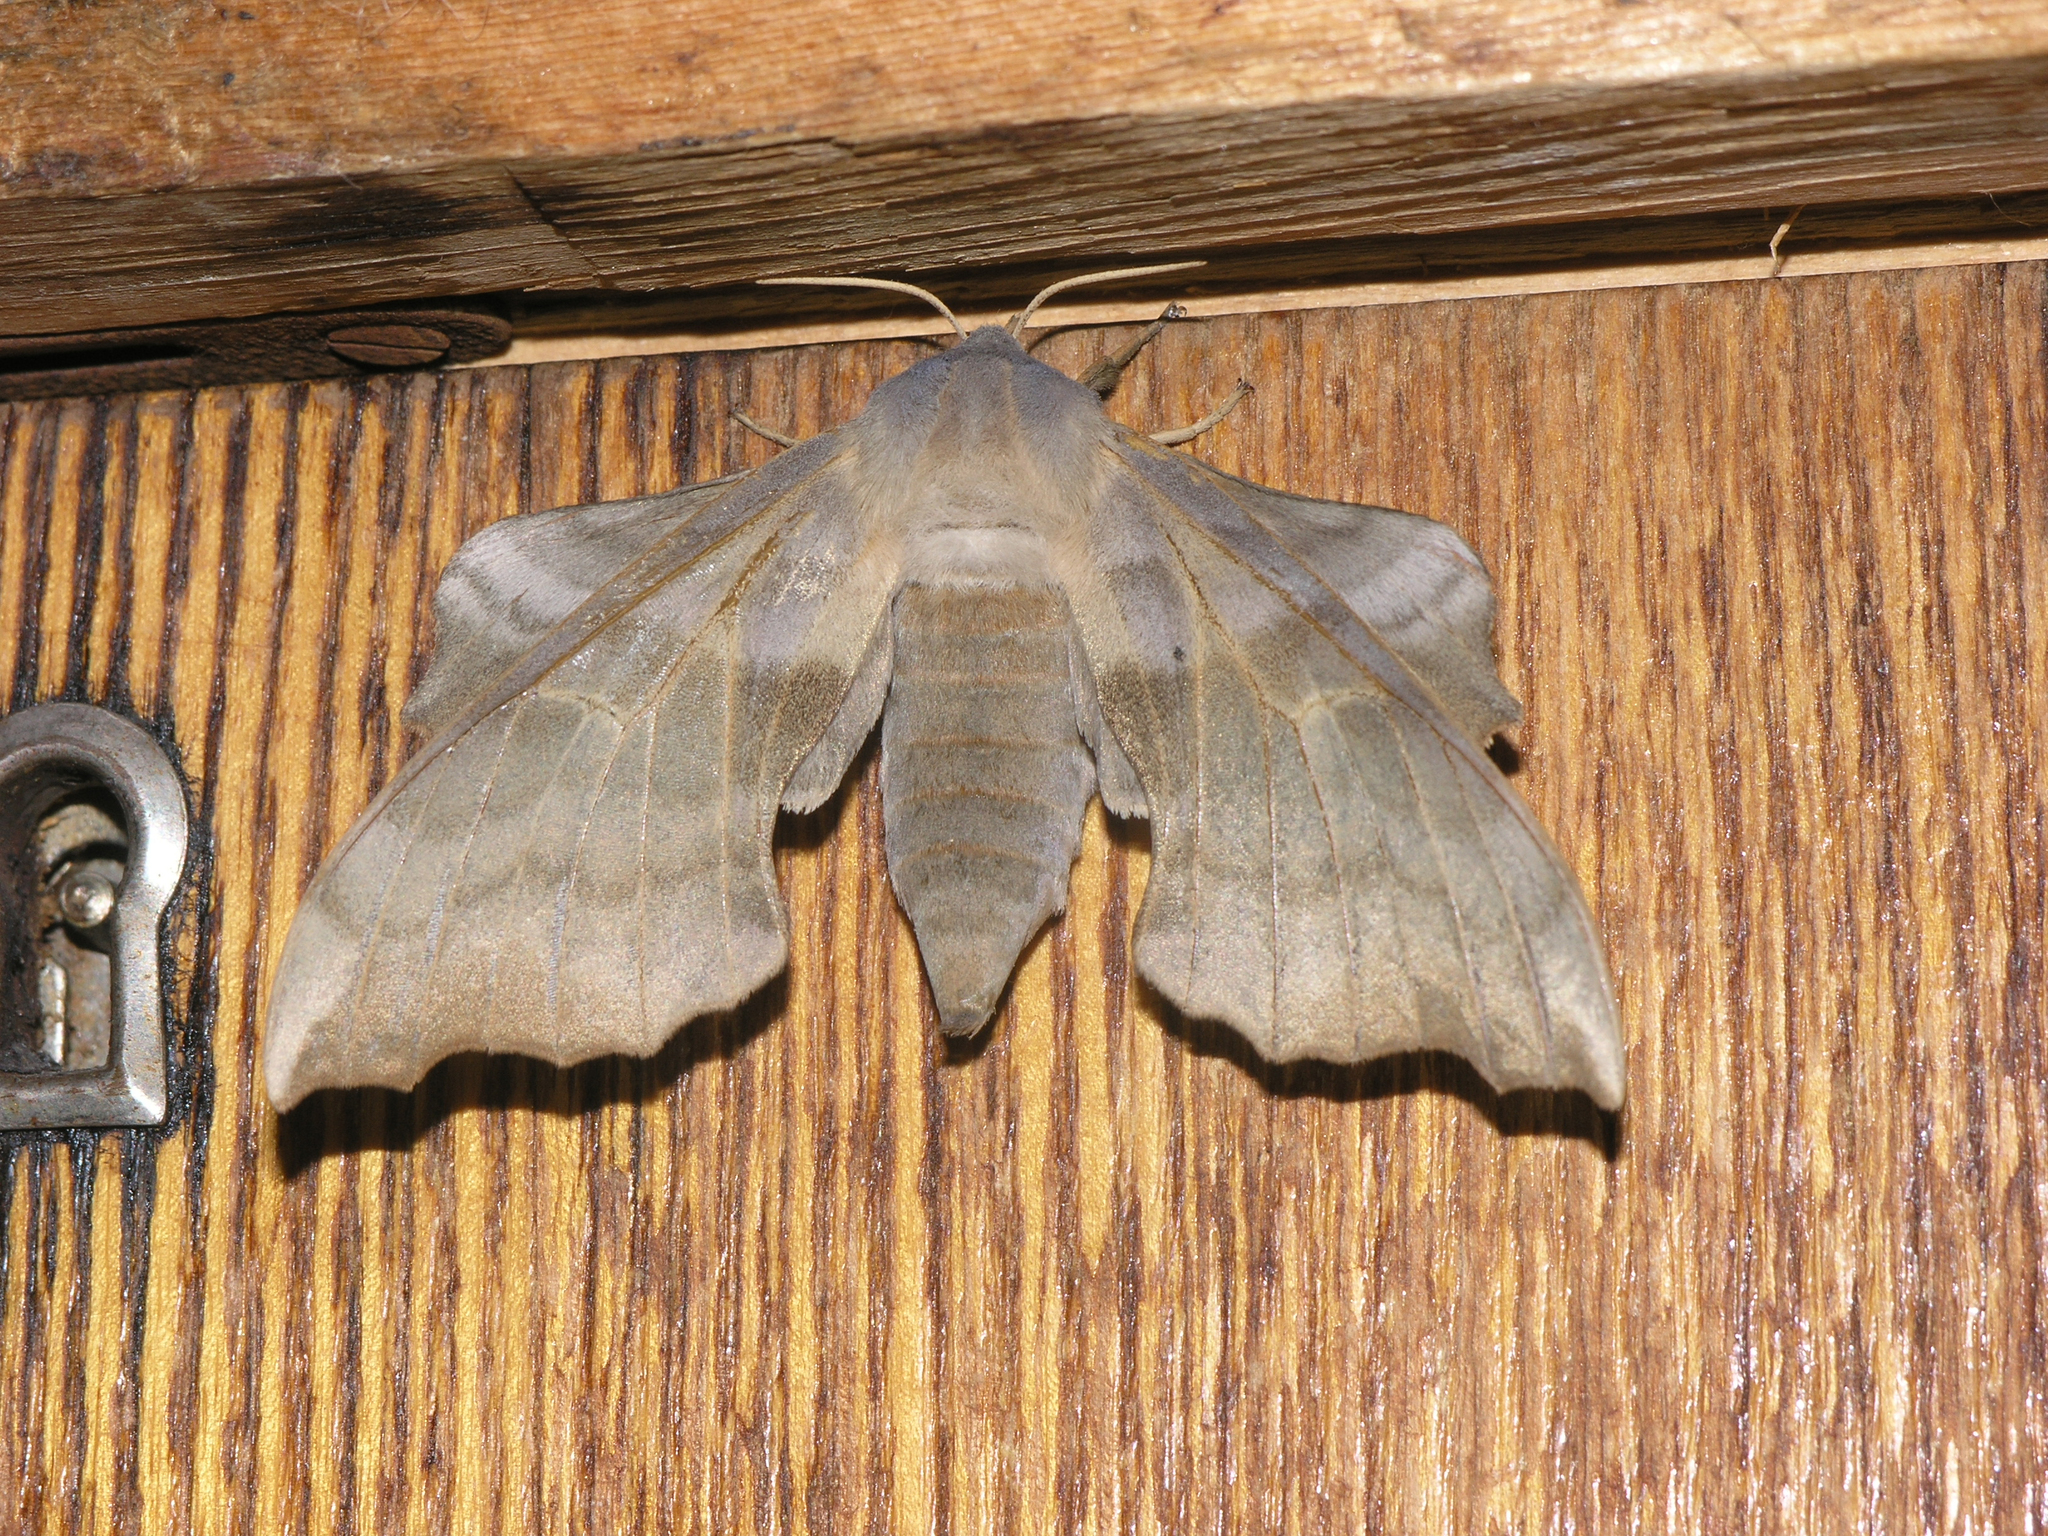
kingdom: Animalia
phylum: Arthropoda
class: Insecta
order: Lepidoptera
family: Sphingidae
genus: Laothoe
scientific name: Laothoe amurensis
